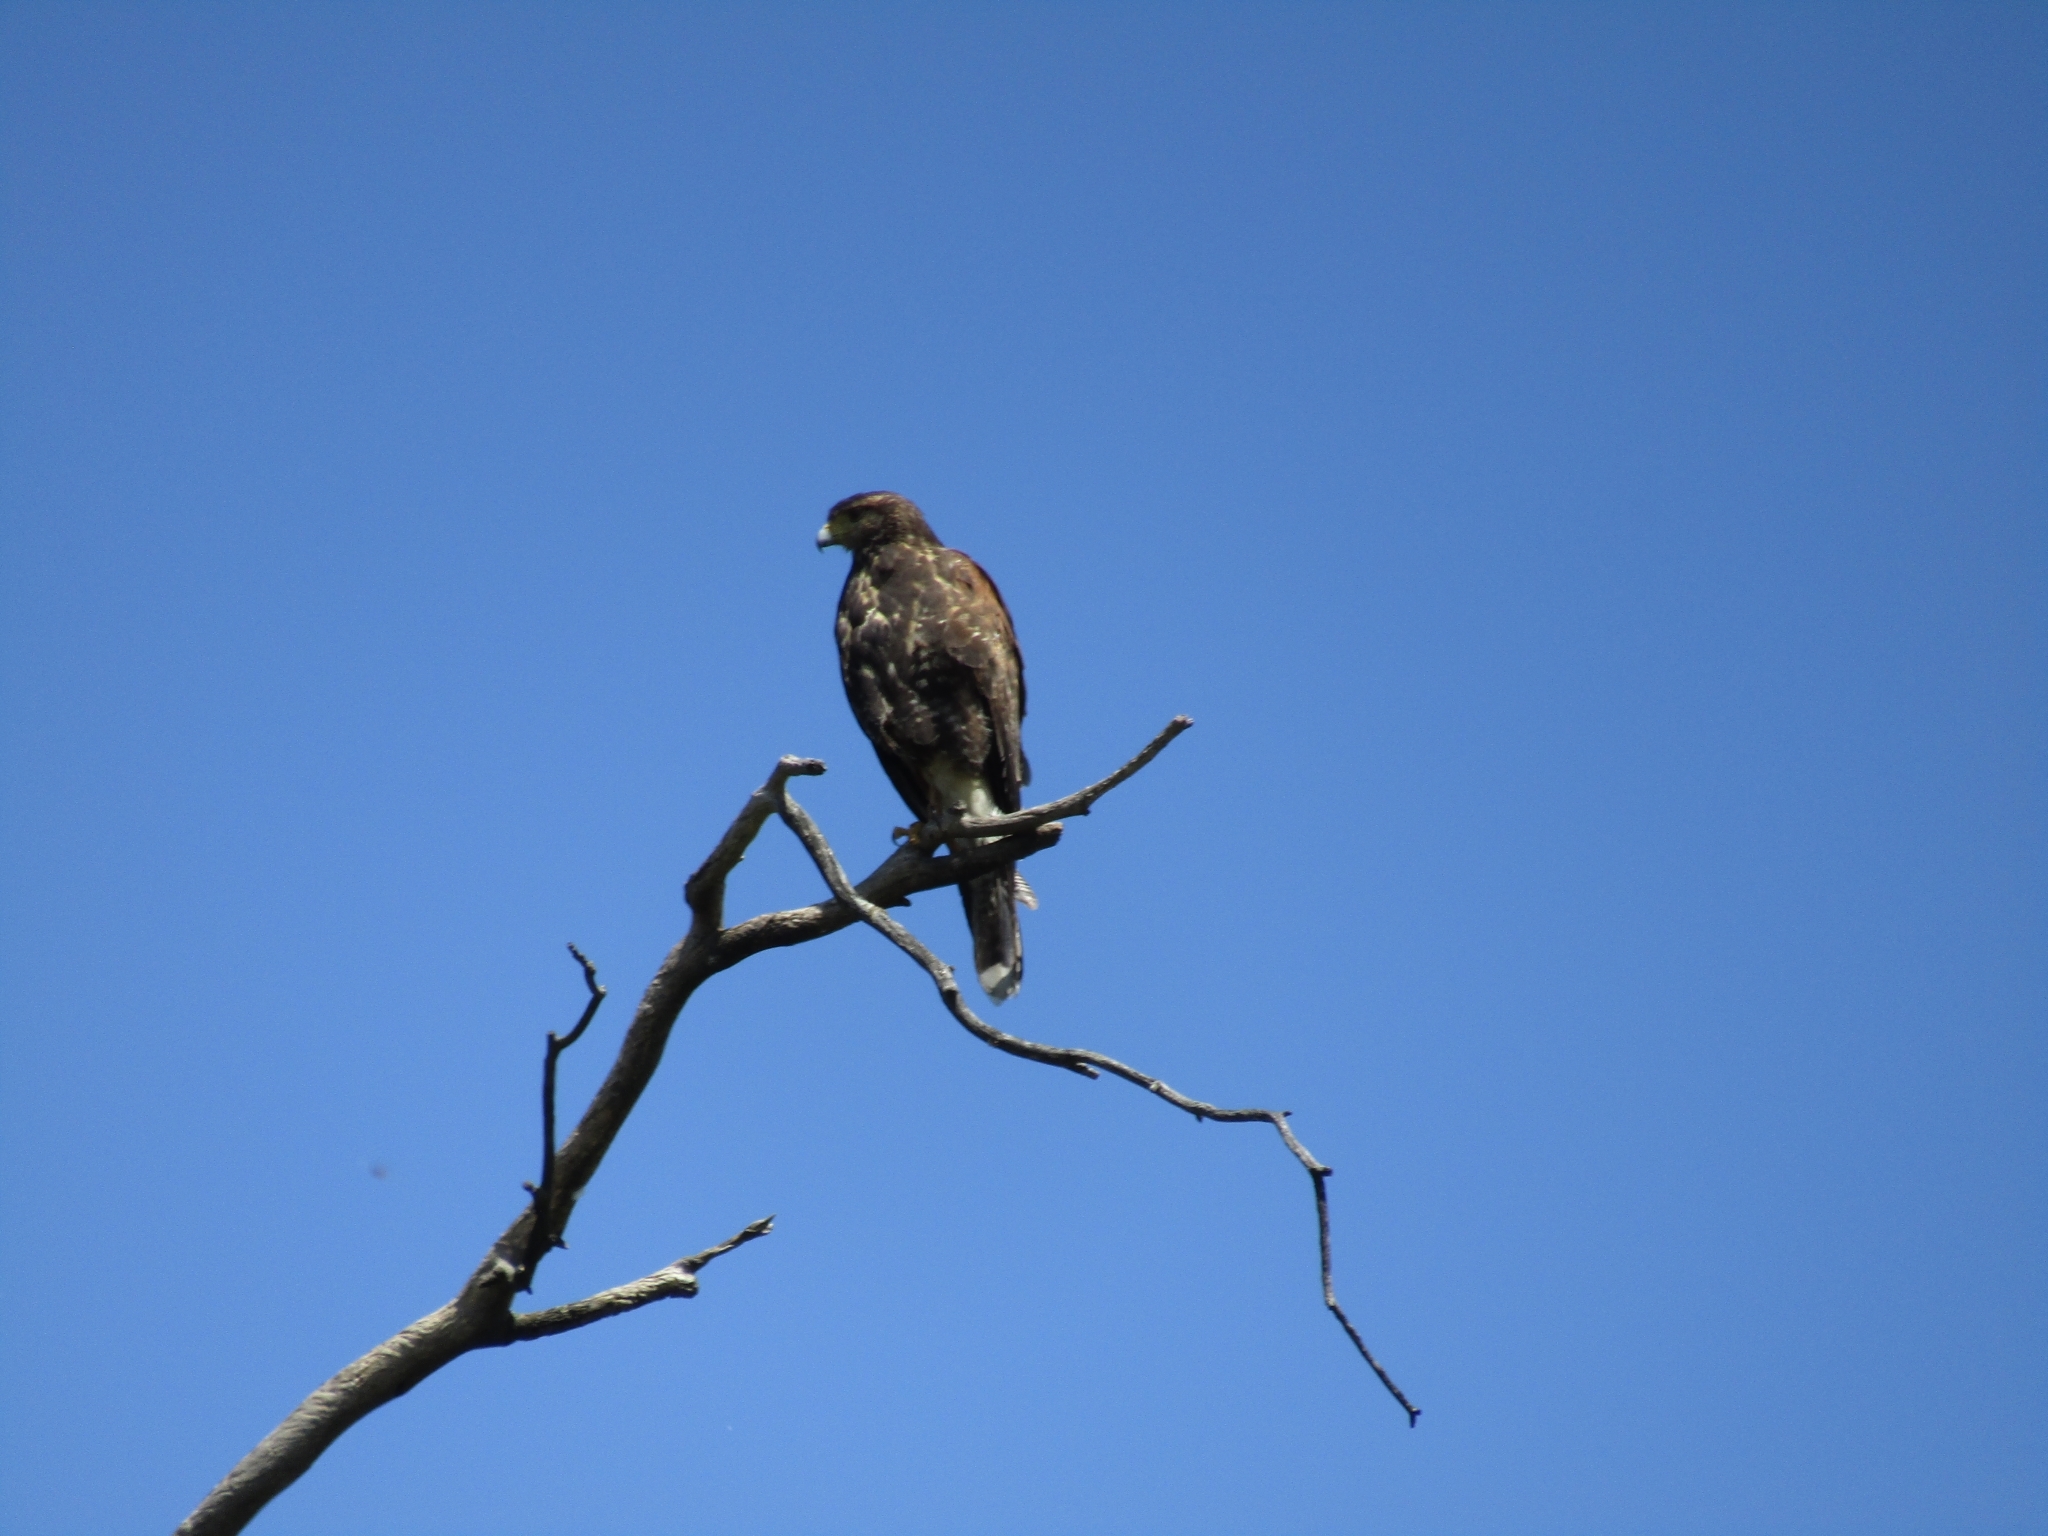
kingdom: Animalia
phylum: Chordata
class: Aves
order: Accipitriformes
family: Accipitridae
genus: Parabuteo
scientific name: Parabuteo unicinctus
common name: Harris's hawk
